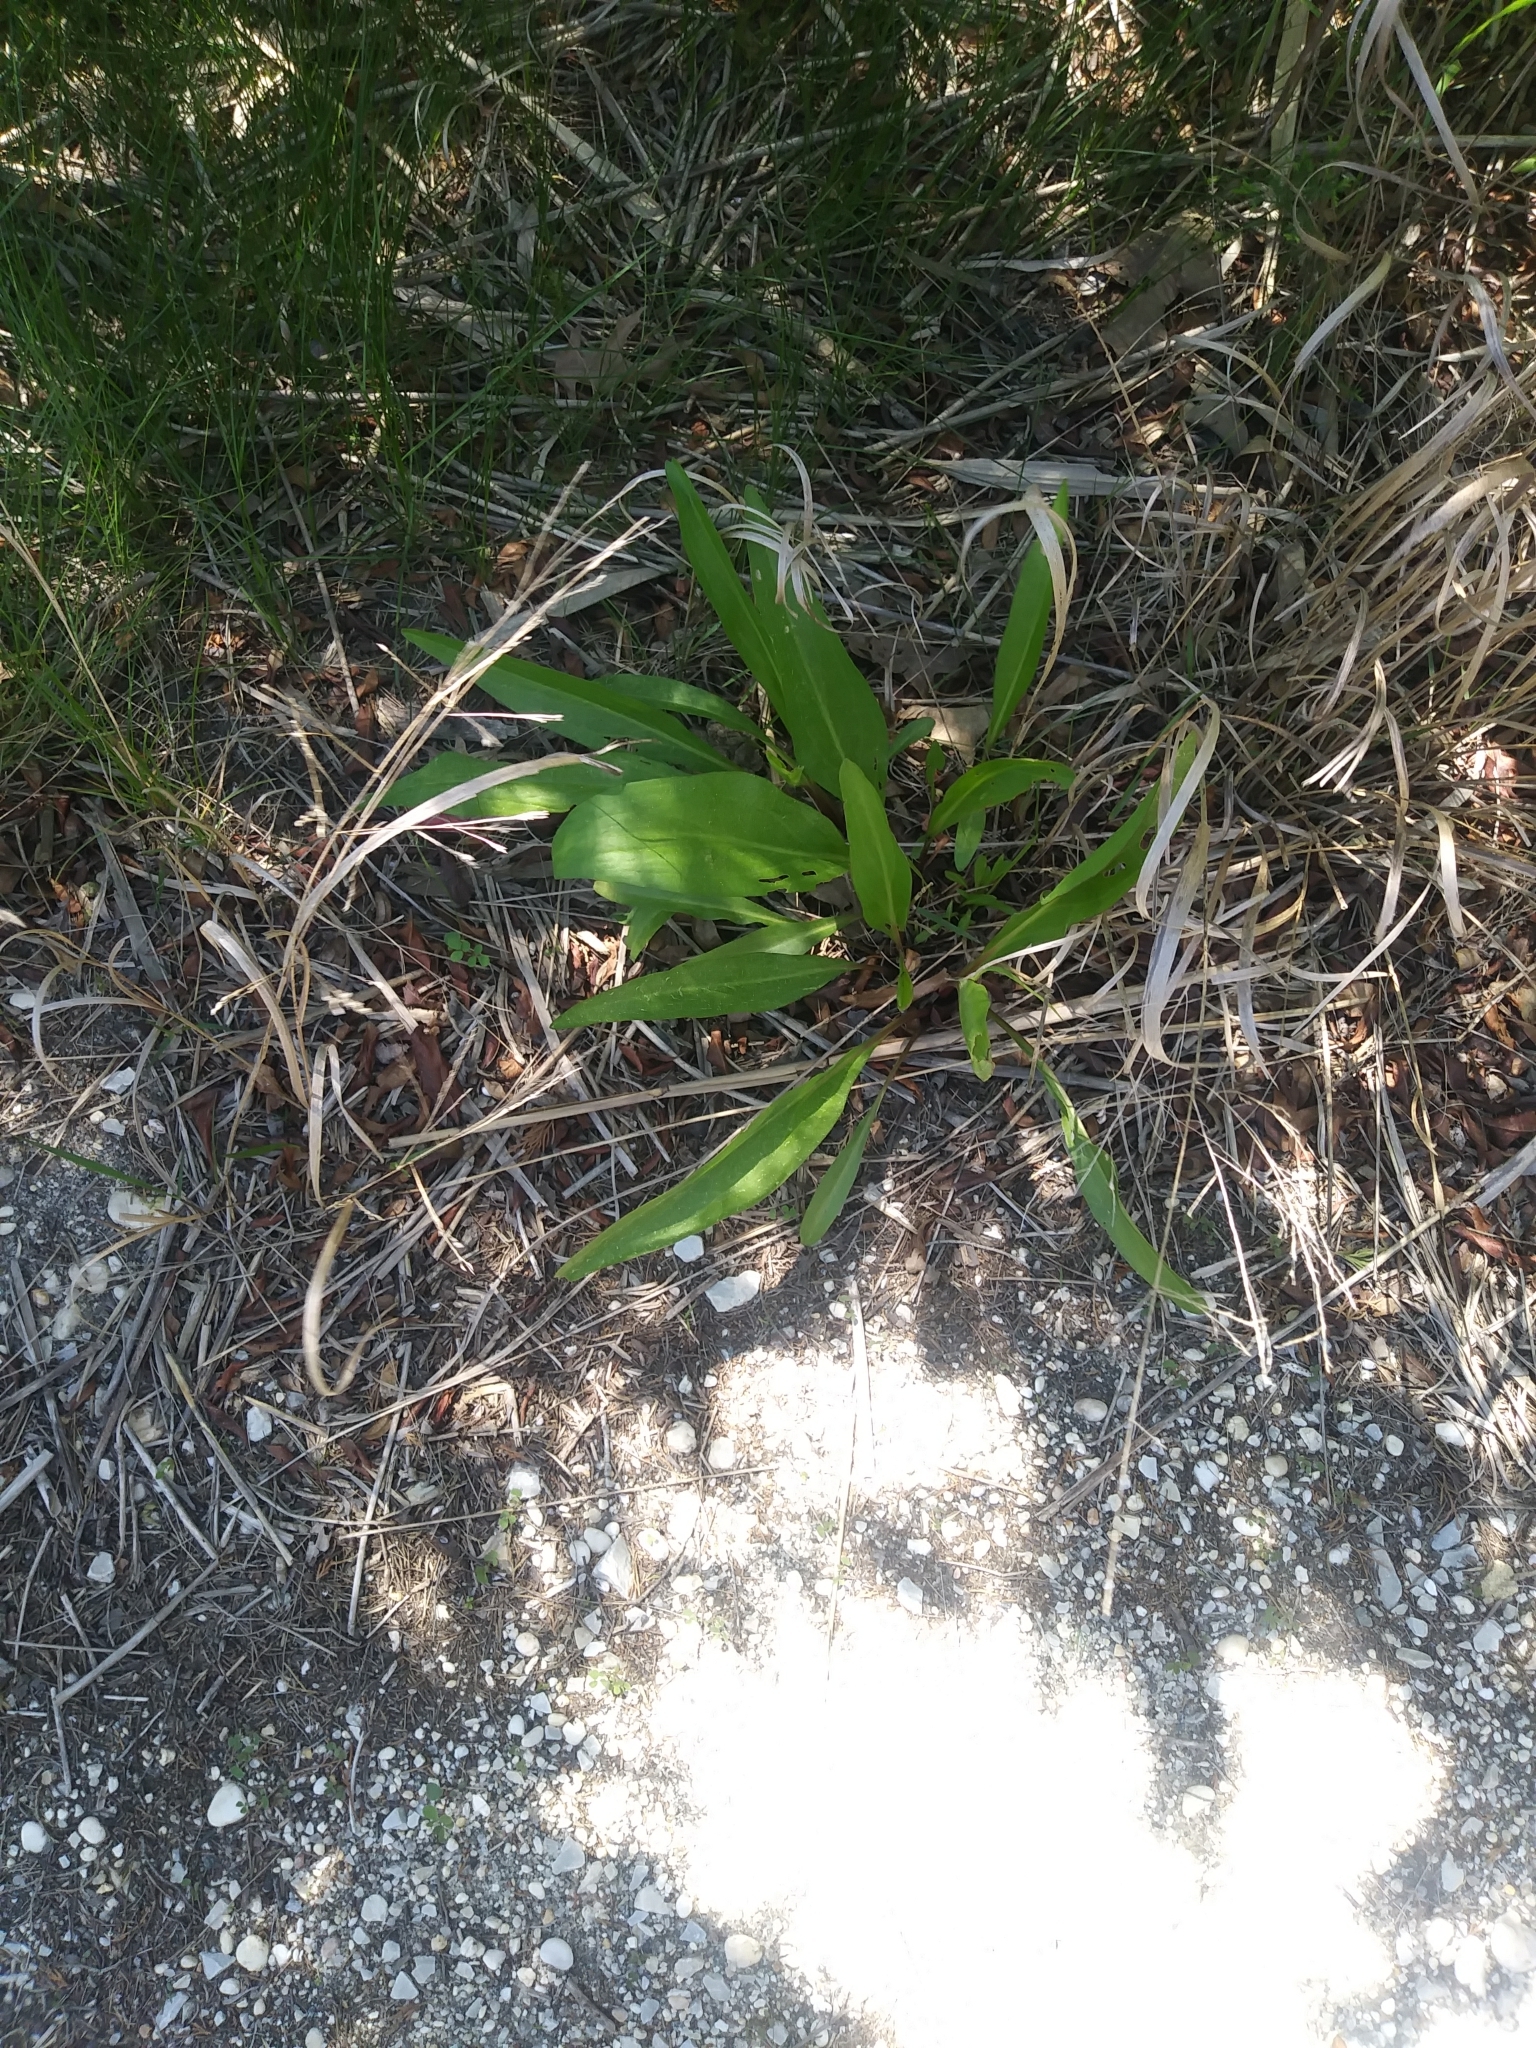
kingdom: Plantae
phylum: Tracheophyta
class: Magnoliopsida
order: Asterales
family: Asteraceae
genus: Solidago
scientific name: Solidago sempervirens
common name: Salt-marsh goldenrod
